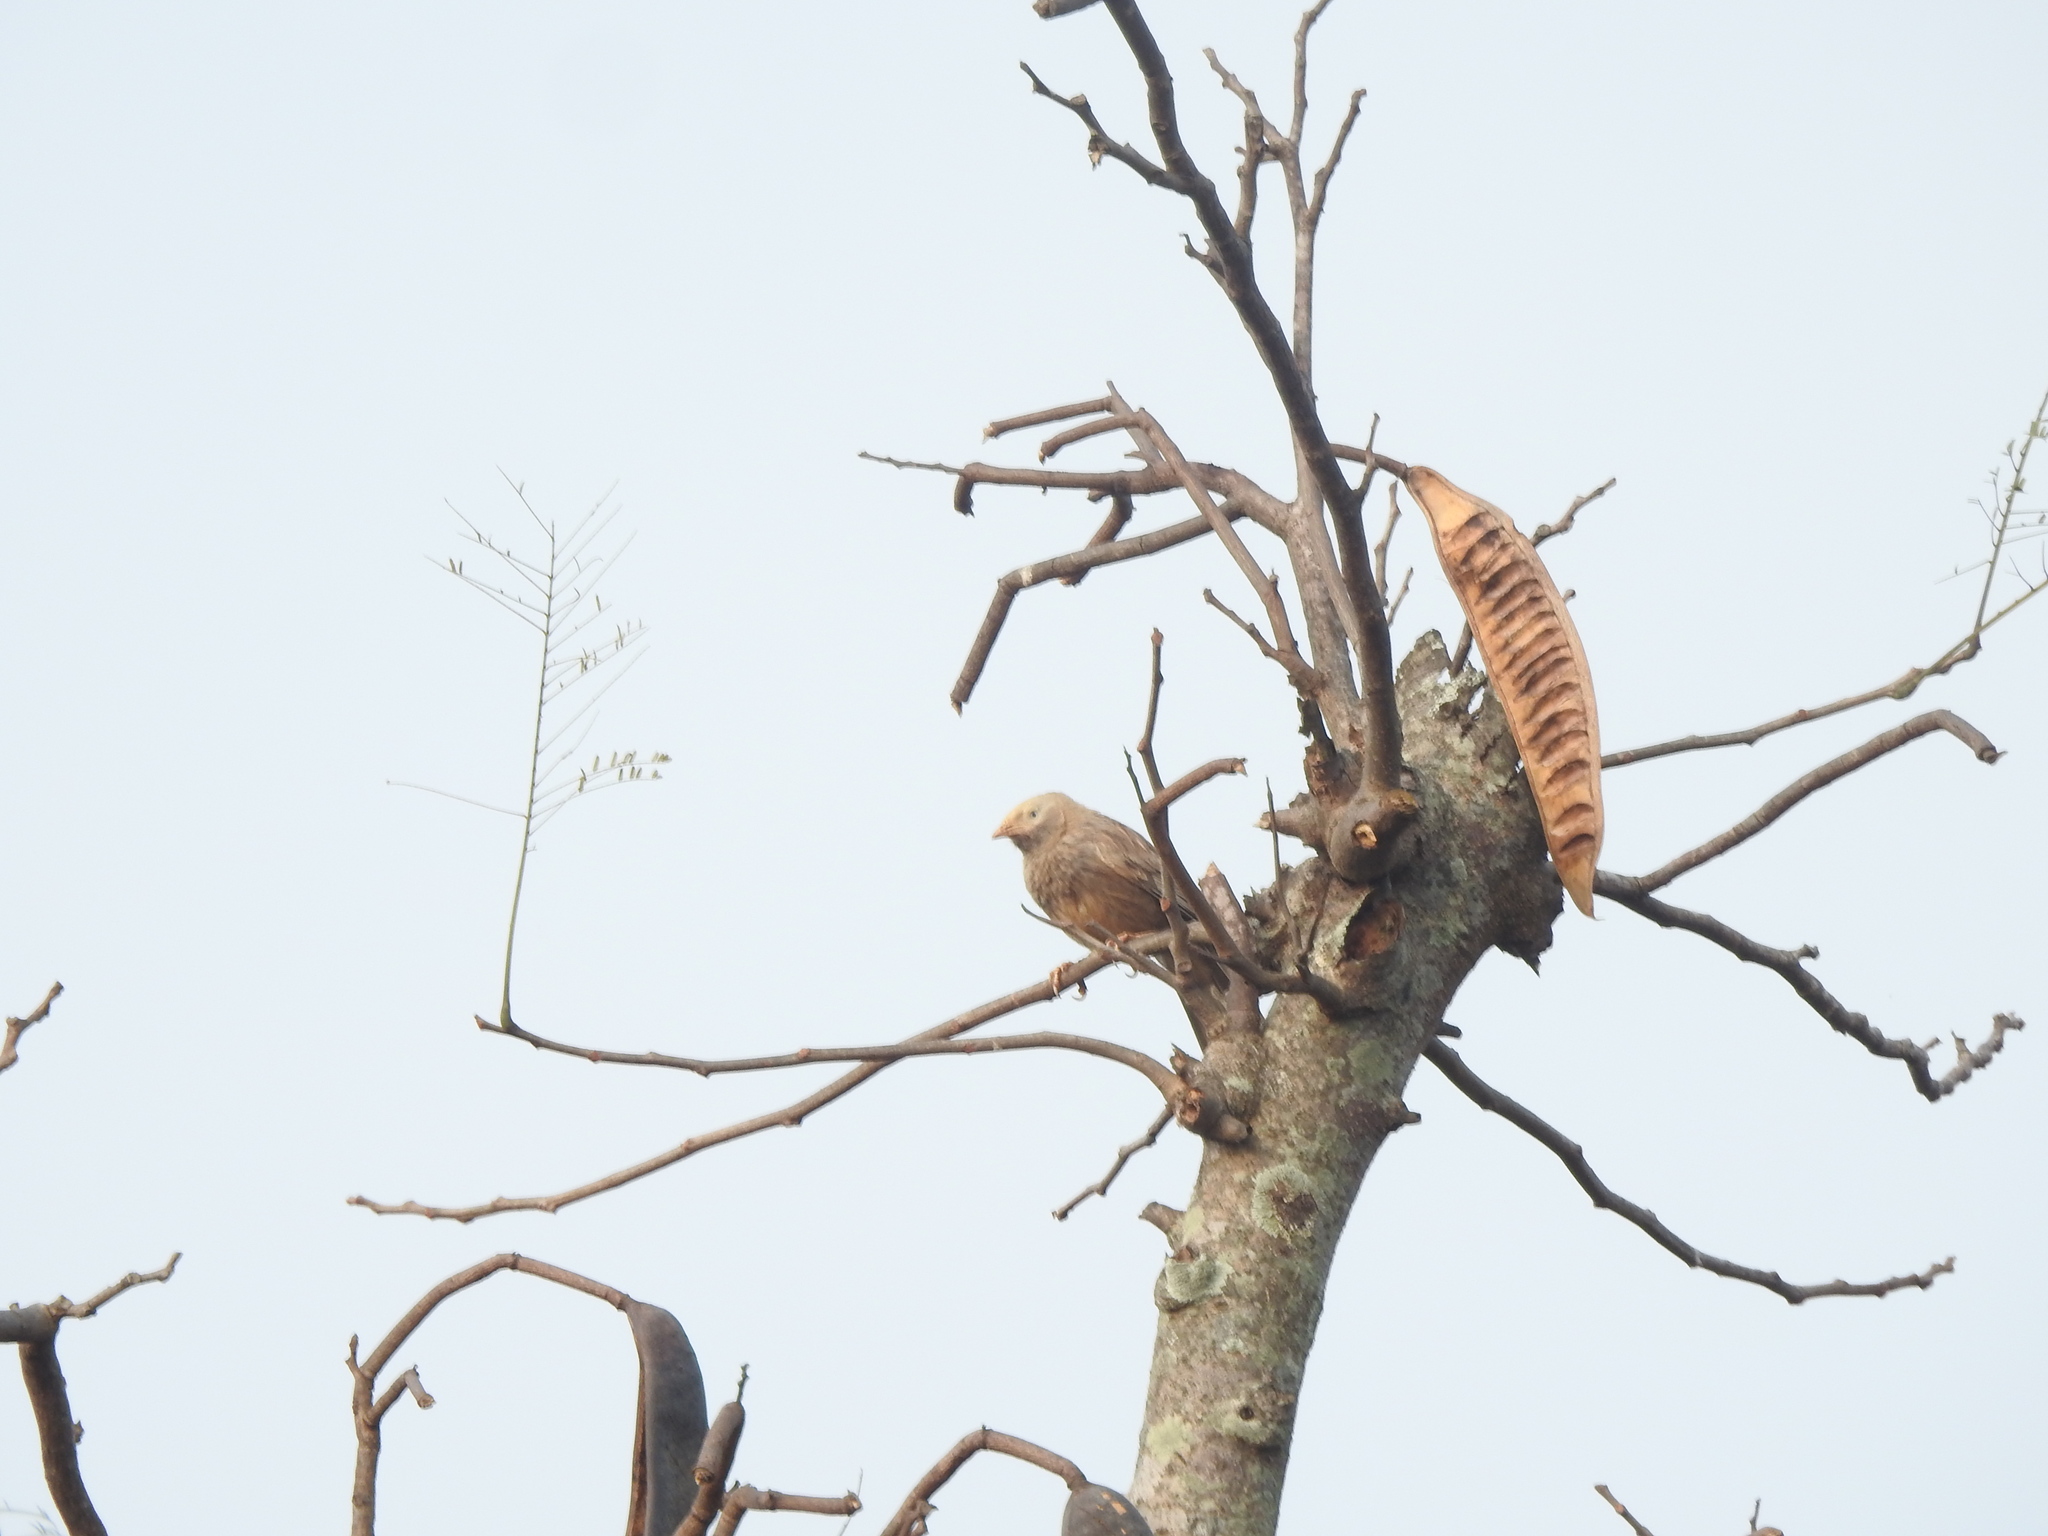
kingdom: Animalia
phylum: Chordata
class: Aves
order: Passeriformes
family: Leiothrichidae
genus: Turdoides
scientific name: Turdoides affinis
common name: Yellow-billed babbler
